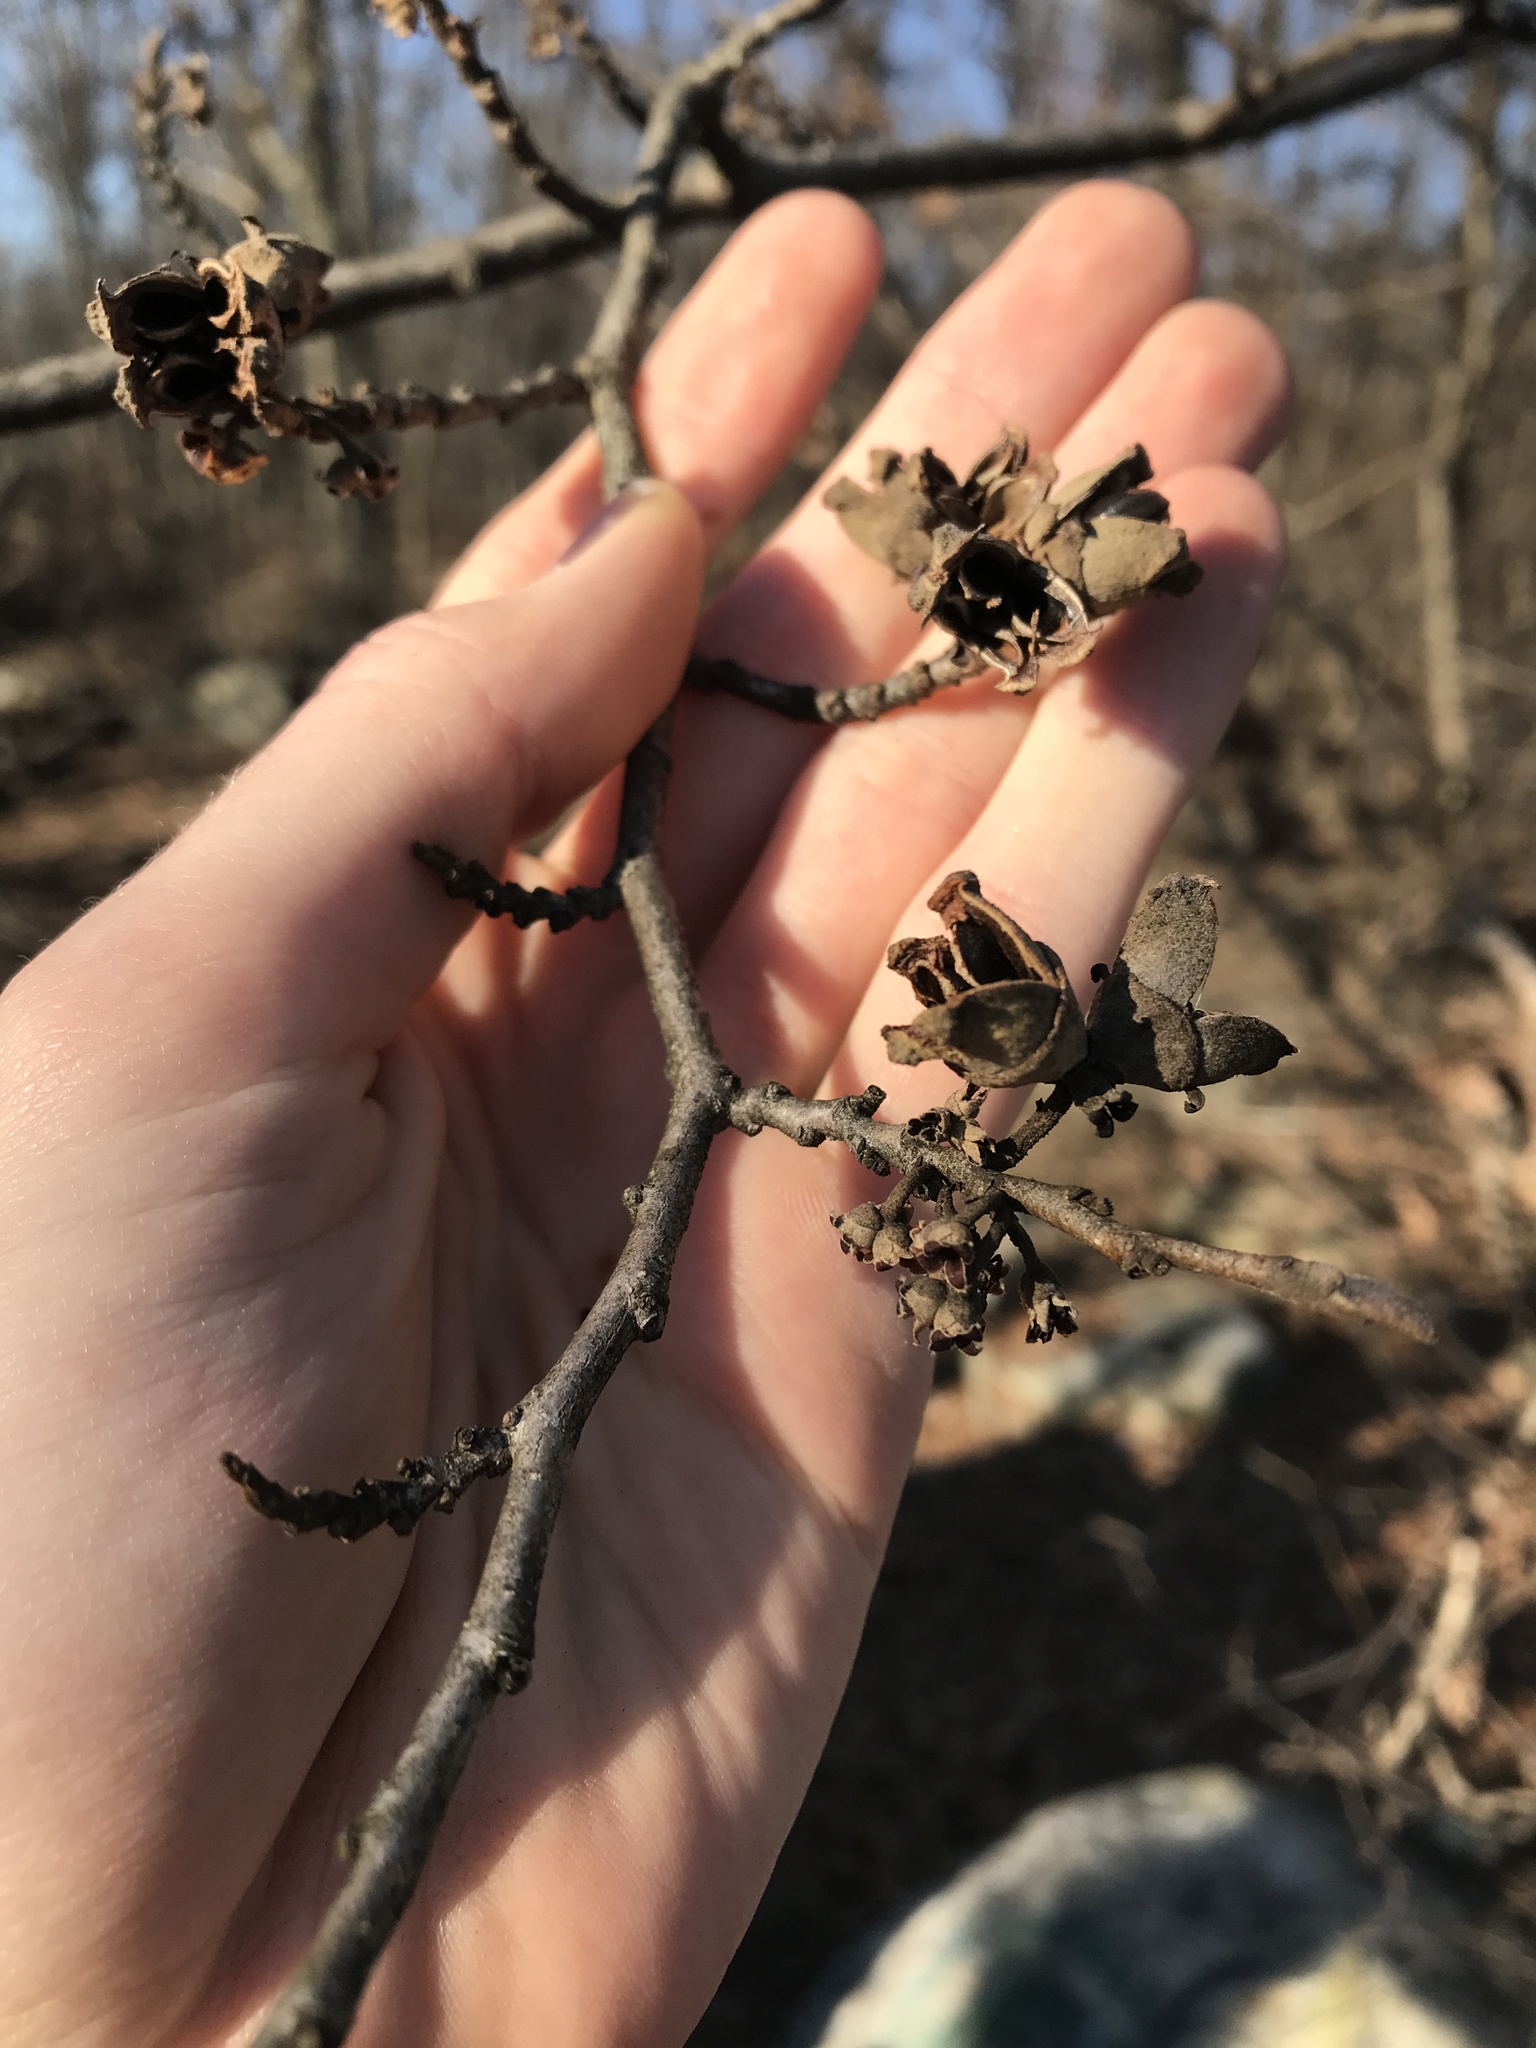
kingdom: Plantae
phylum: Tracheophyta
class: Magnoliopsida
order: Saxifragales
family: Hamamelidaceae
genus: Hamamelis
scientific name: Hamamelis virginiana
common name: Witch-hazel
